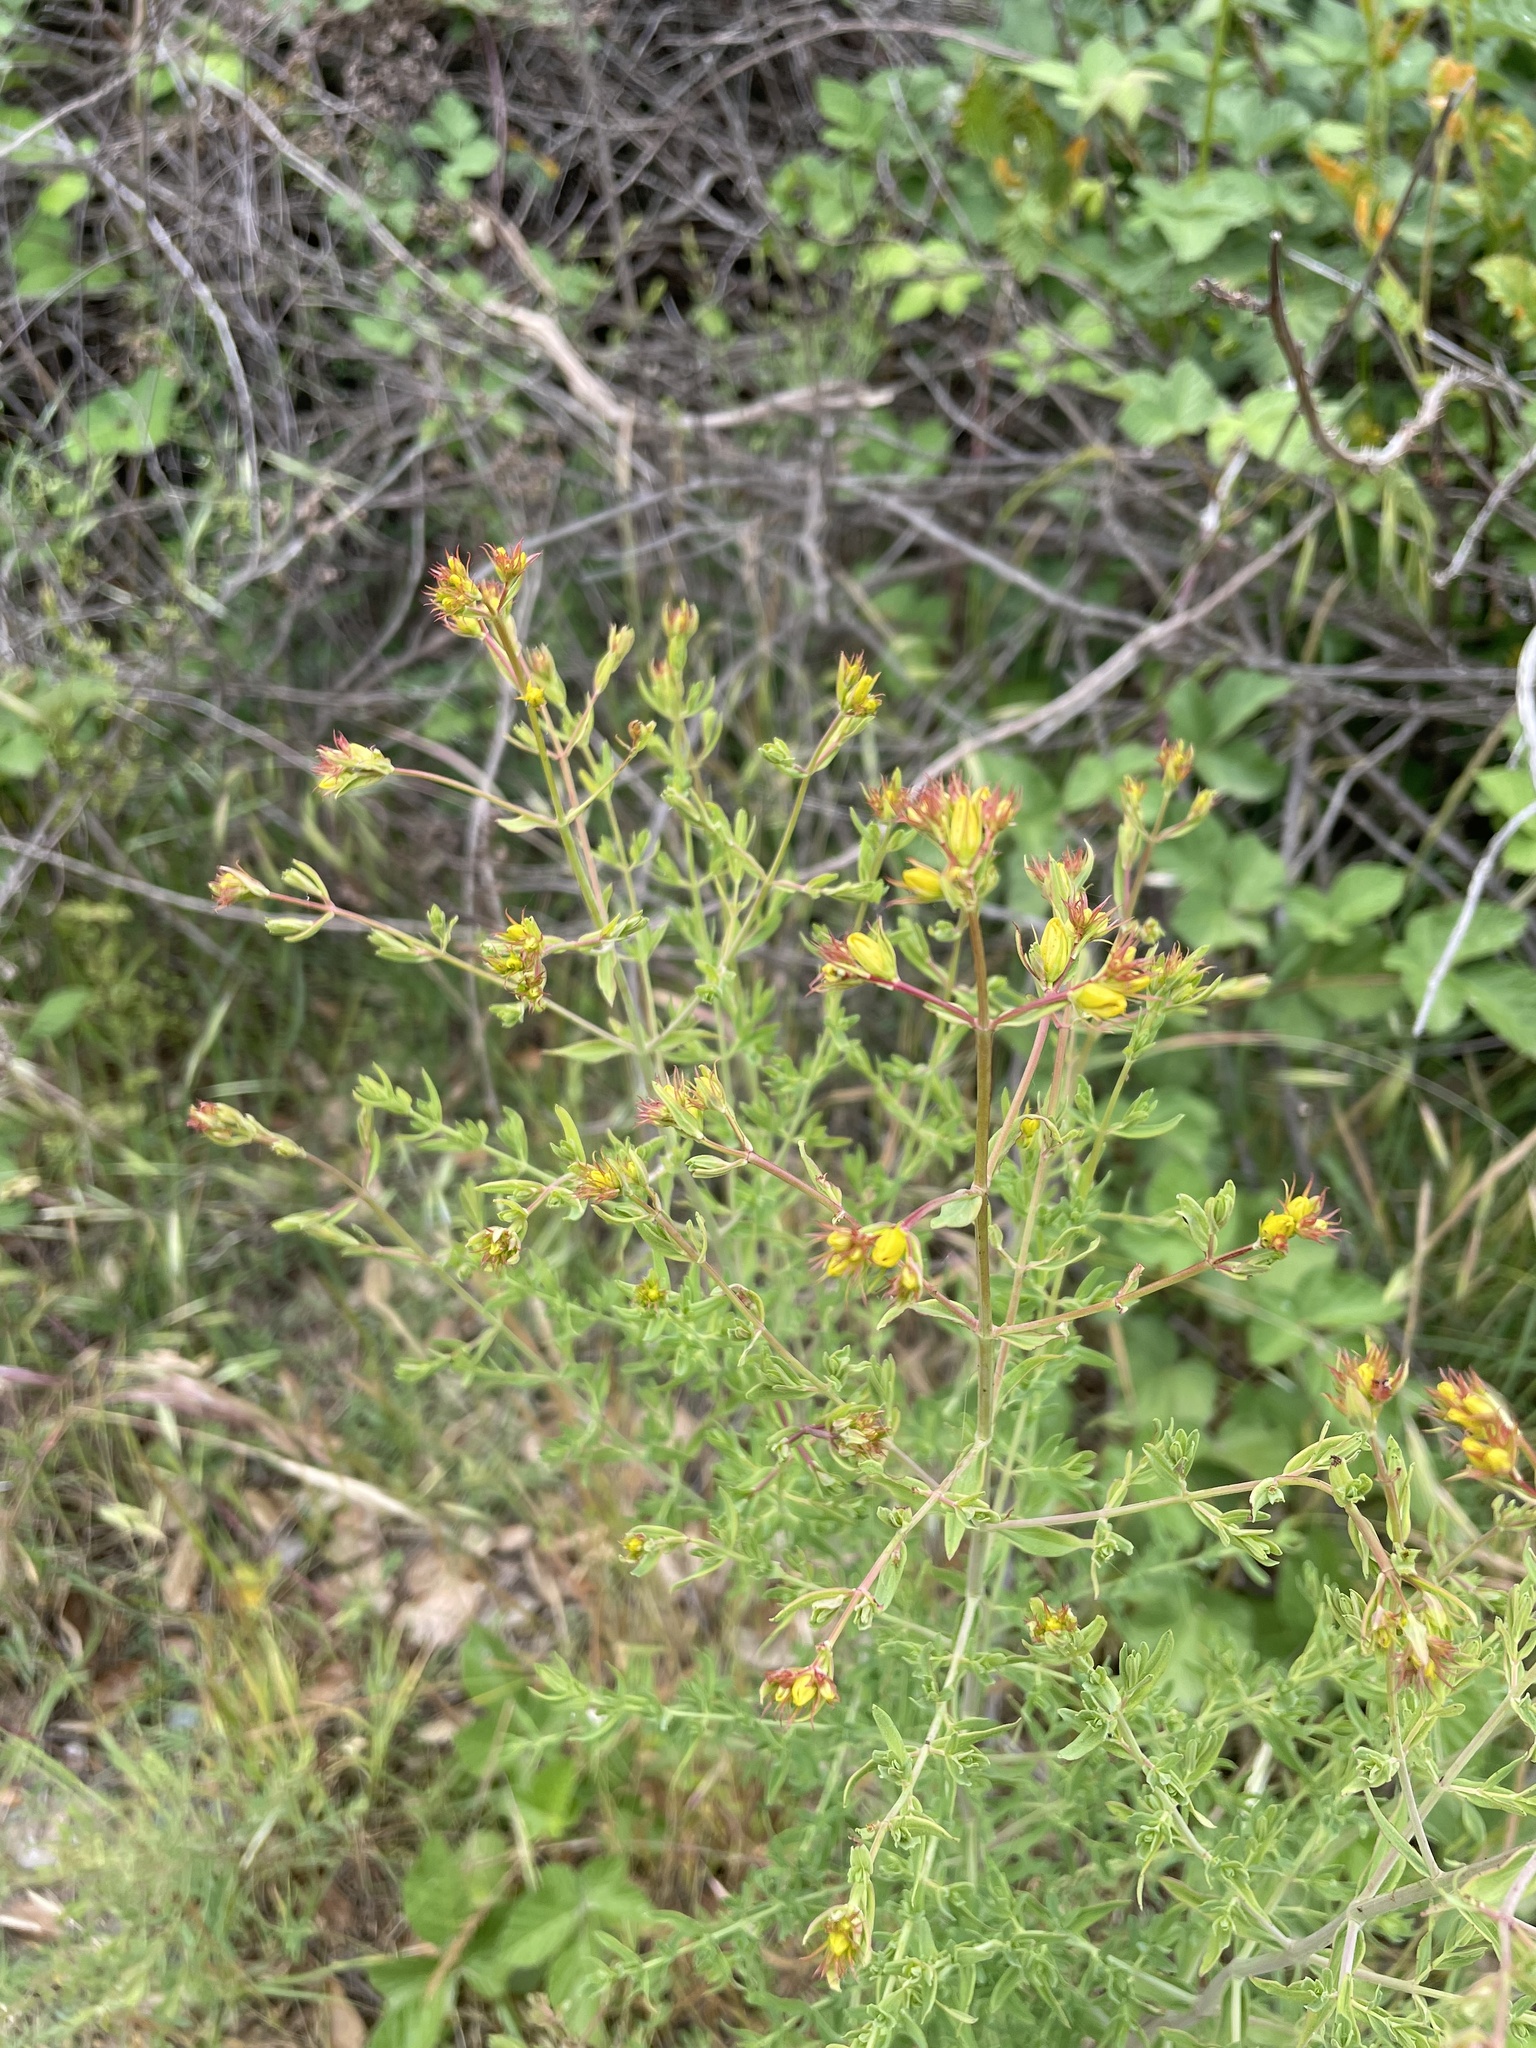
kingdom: Plantae
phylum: Tracheophyta
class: Magnoliopsida
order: Malpighiales
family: Hypericaceae
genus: Hypericum
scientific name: Hypericum perforatum
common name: Common st. johnswort
